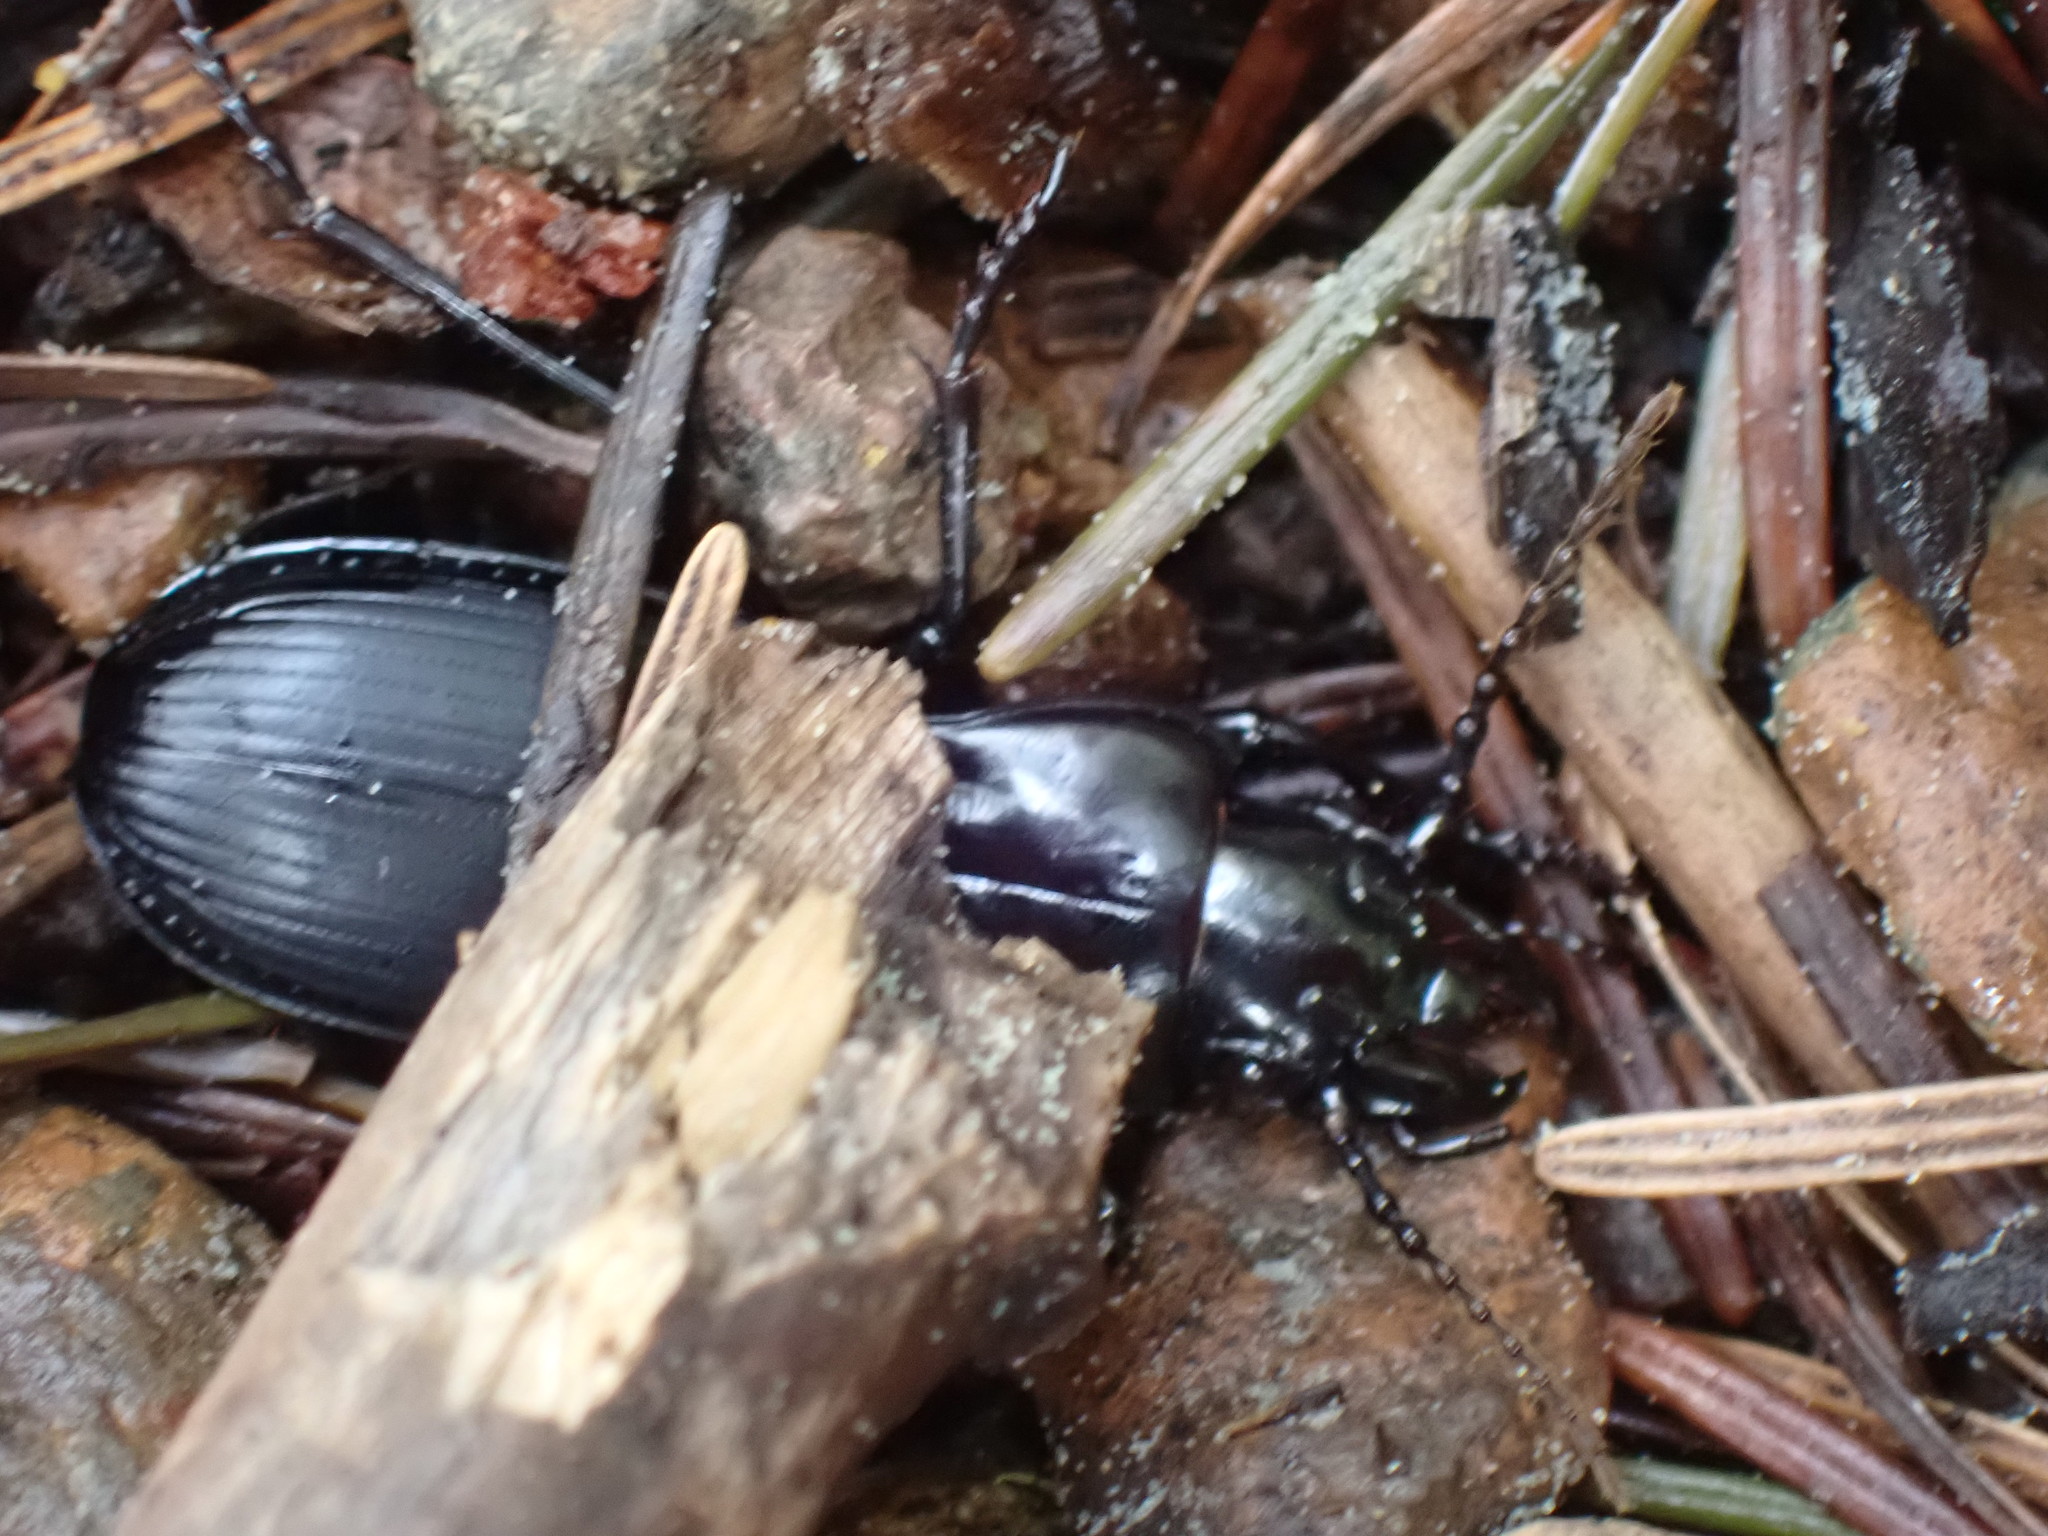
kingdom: Animalia
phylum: Arthropoda
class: Insecta
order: Coleoptera
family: Carabidae
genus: Pterostichus
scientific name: Pterostichus lama
